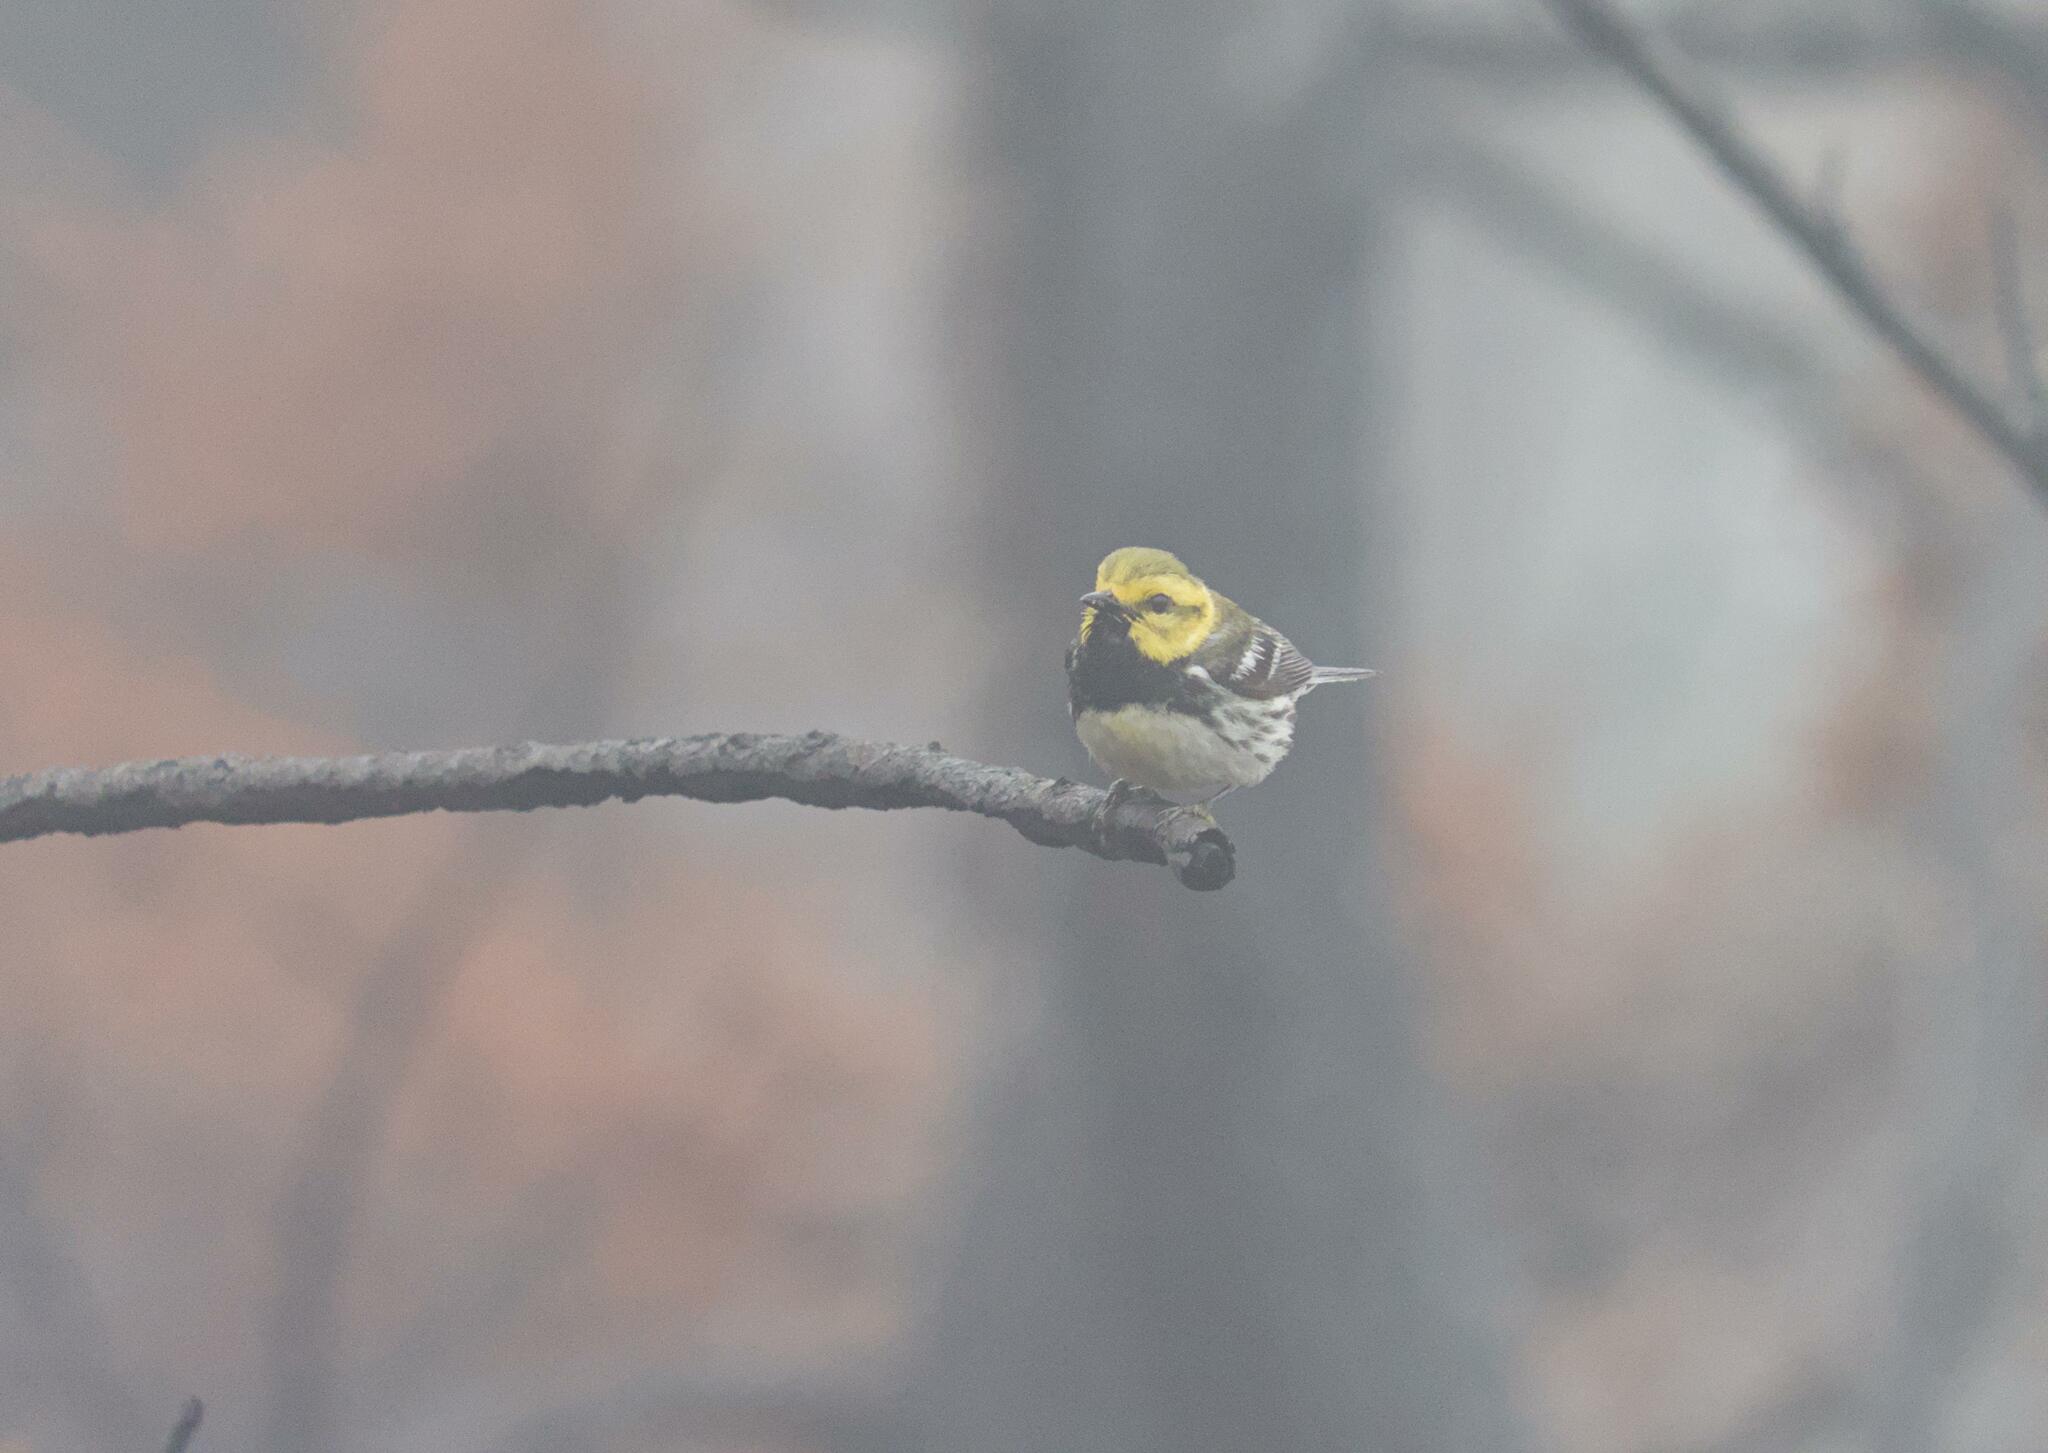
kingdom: Animalia
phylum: Chordata
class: Aves
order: Passeriformes
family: Parulidae
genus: Setophaga
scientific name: Setophaga virens
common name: Black-throated green warbler
